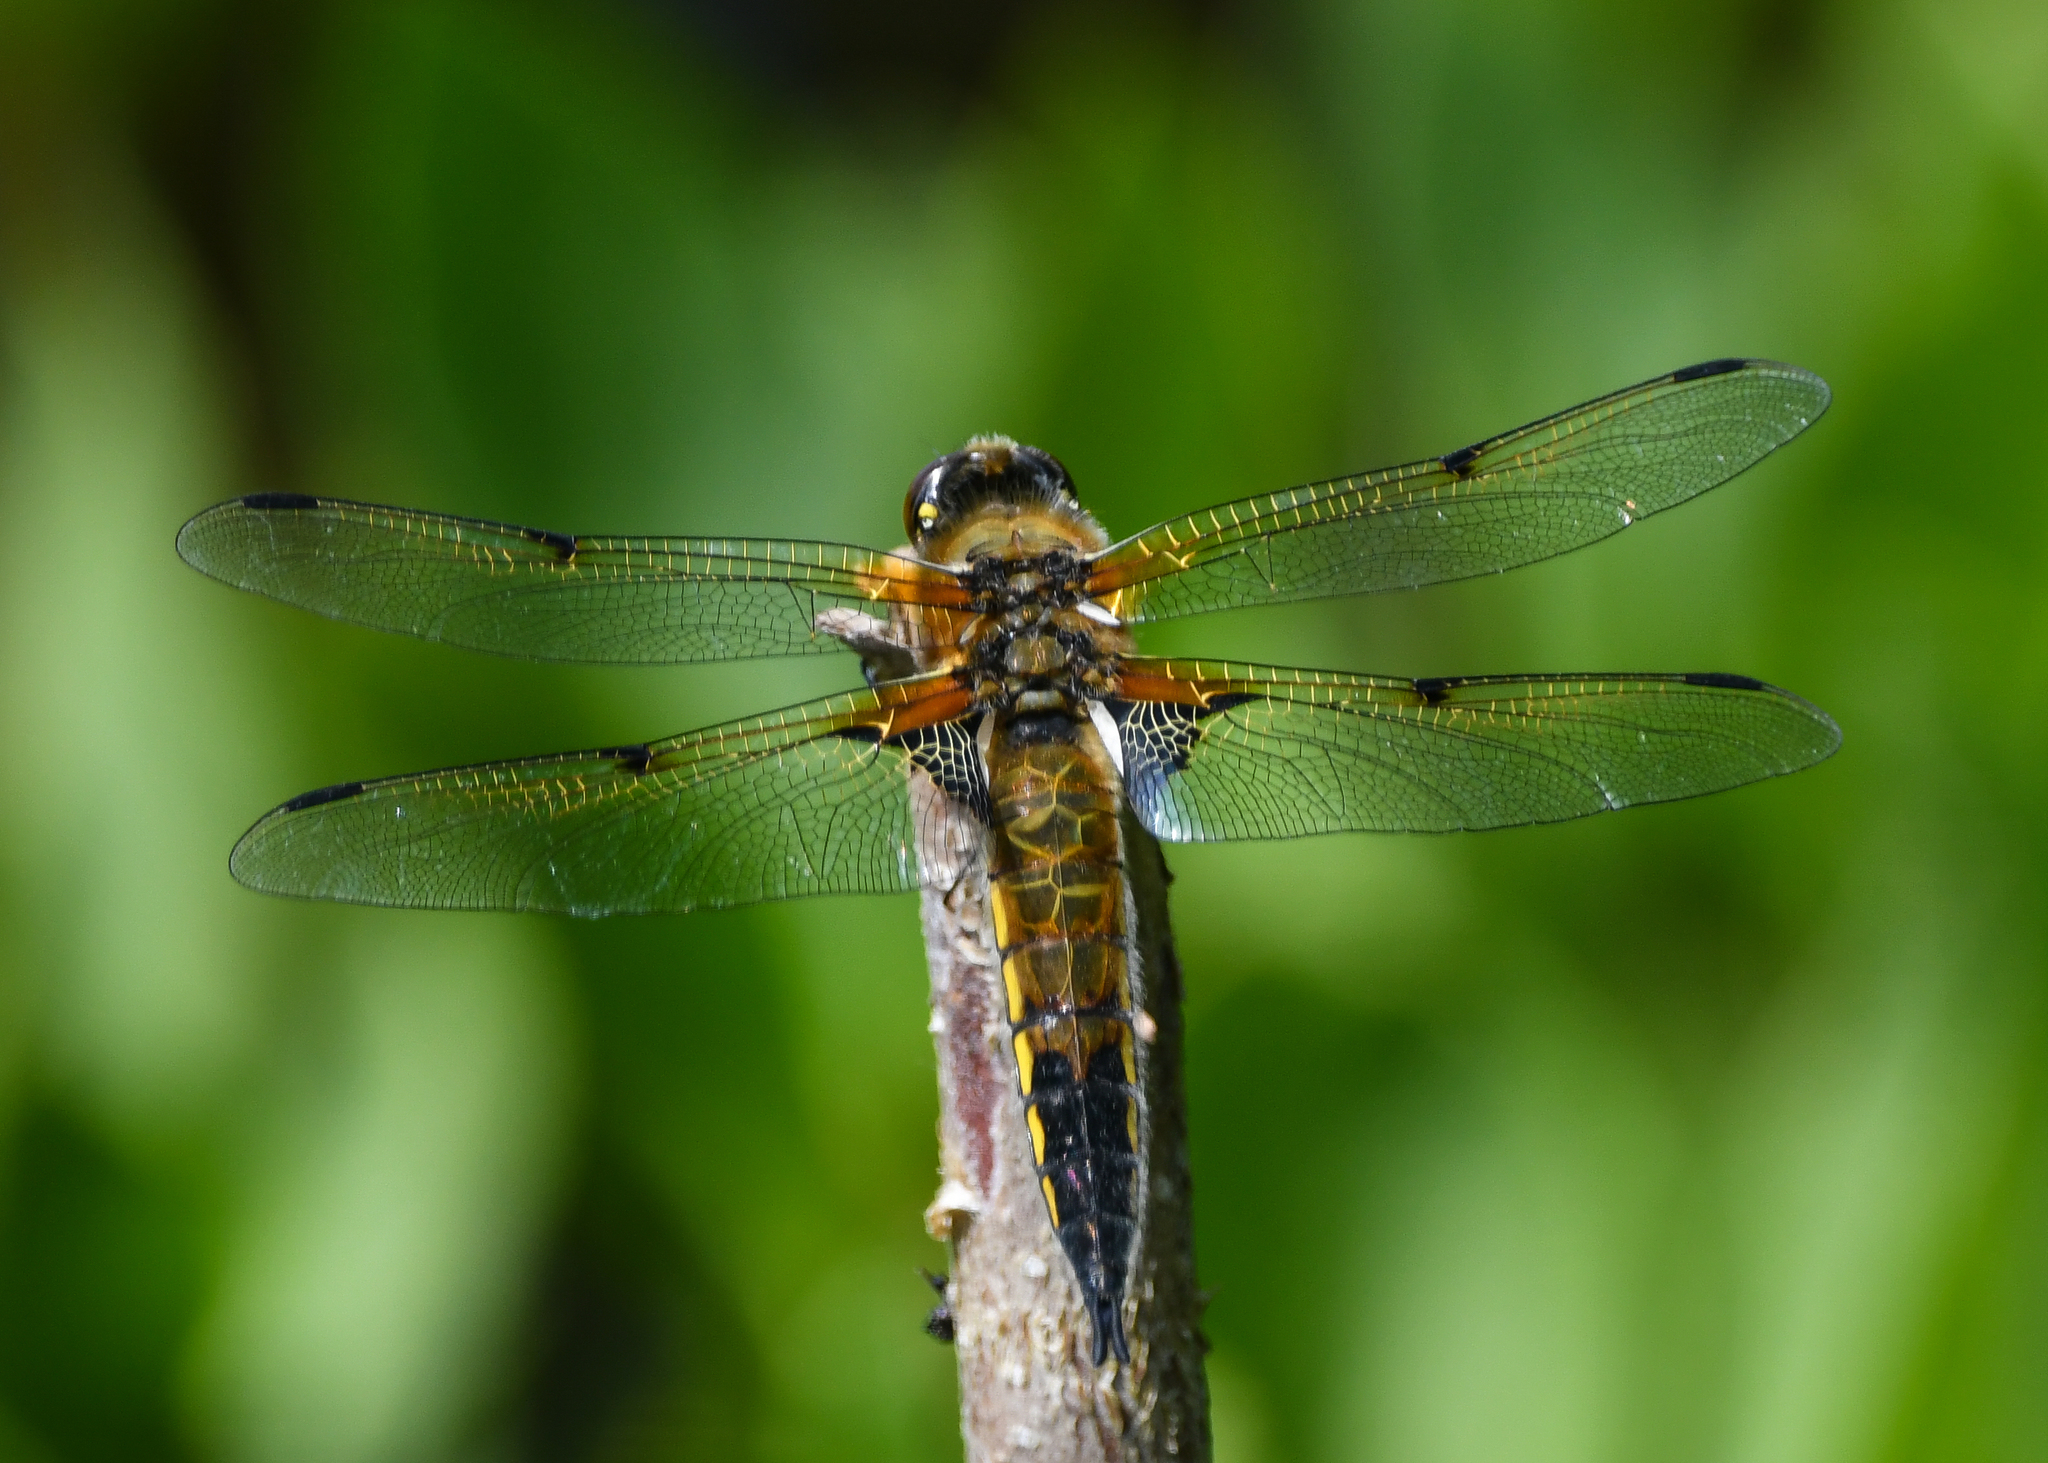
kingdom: Animalia
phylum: Arthropoda
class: Insecta
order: Odonata
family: Libellulidae
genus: Libellula
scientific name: Libellula quadrimaculata
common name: Four-spotted chaser
